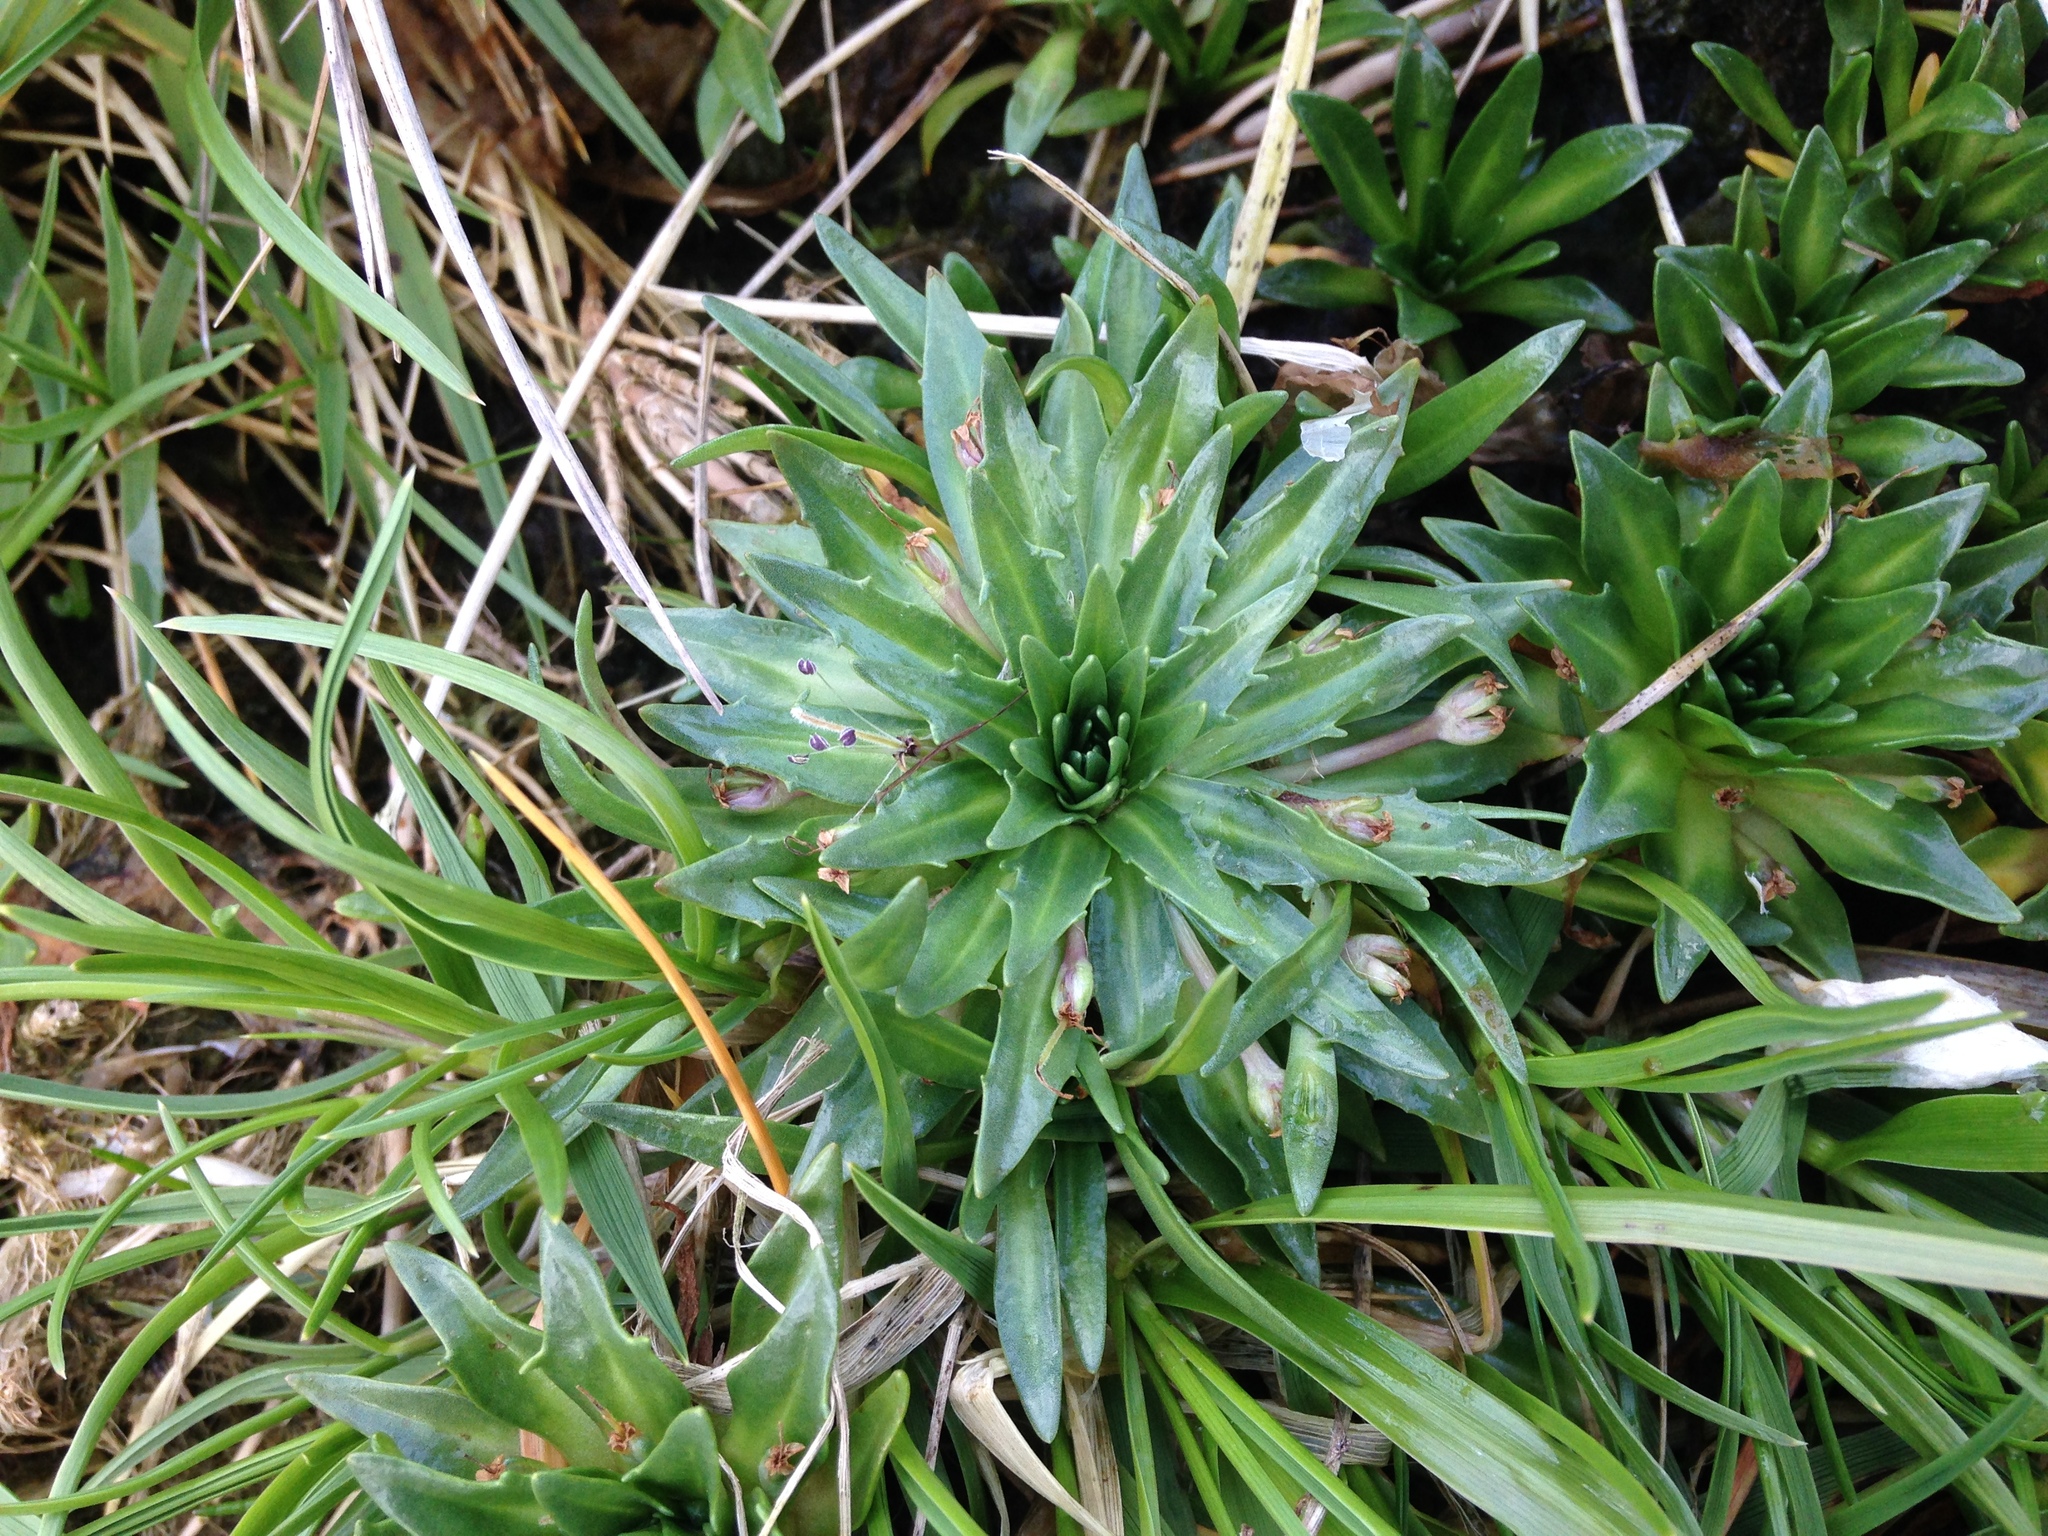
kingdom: Plantae
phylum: Tracheophyta
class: Magnoliopsida
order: Lamiales
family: Plantaginaceae
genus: Plantago
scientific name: Plantago barbata
